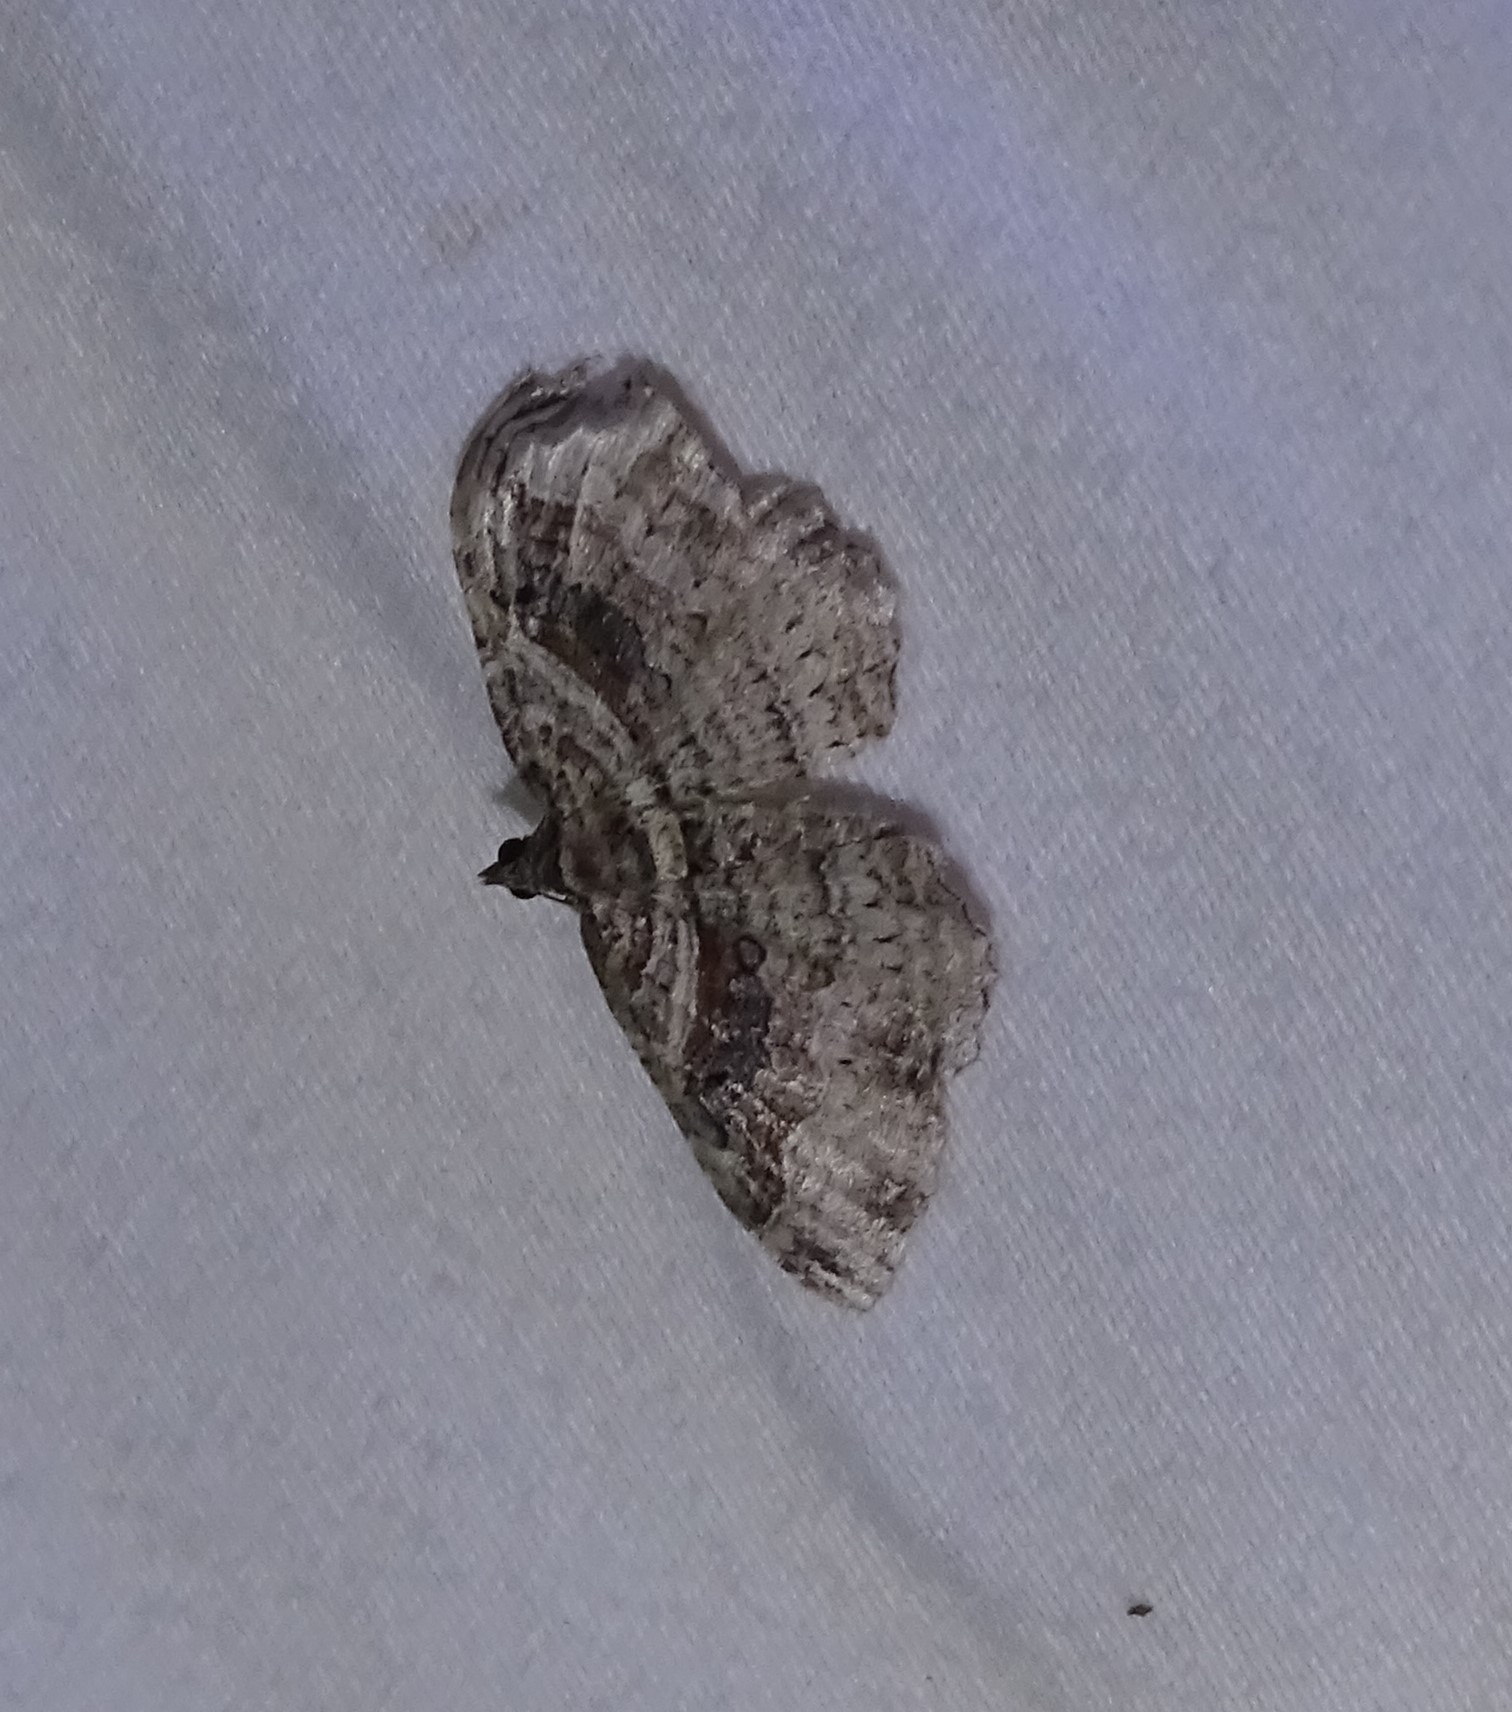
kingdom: Animalia
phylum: Arthropoda
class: Insecta
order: Lepidoptera
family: Geometridae
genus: Costaconvexa
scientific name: Costaconvexa centrostrigaria
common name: Bent-line carpet
